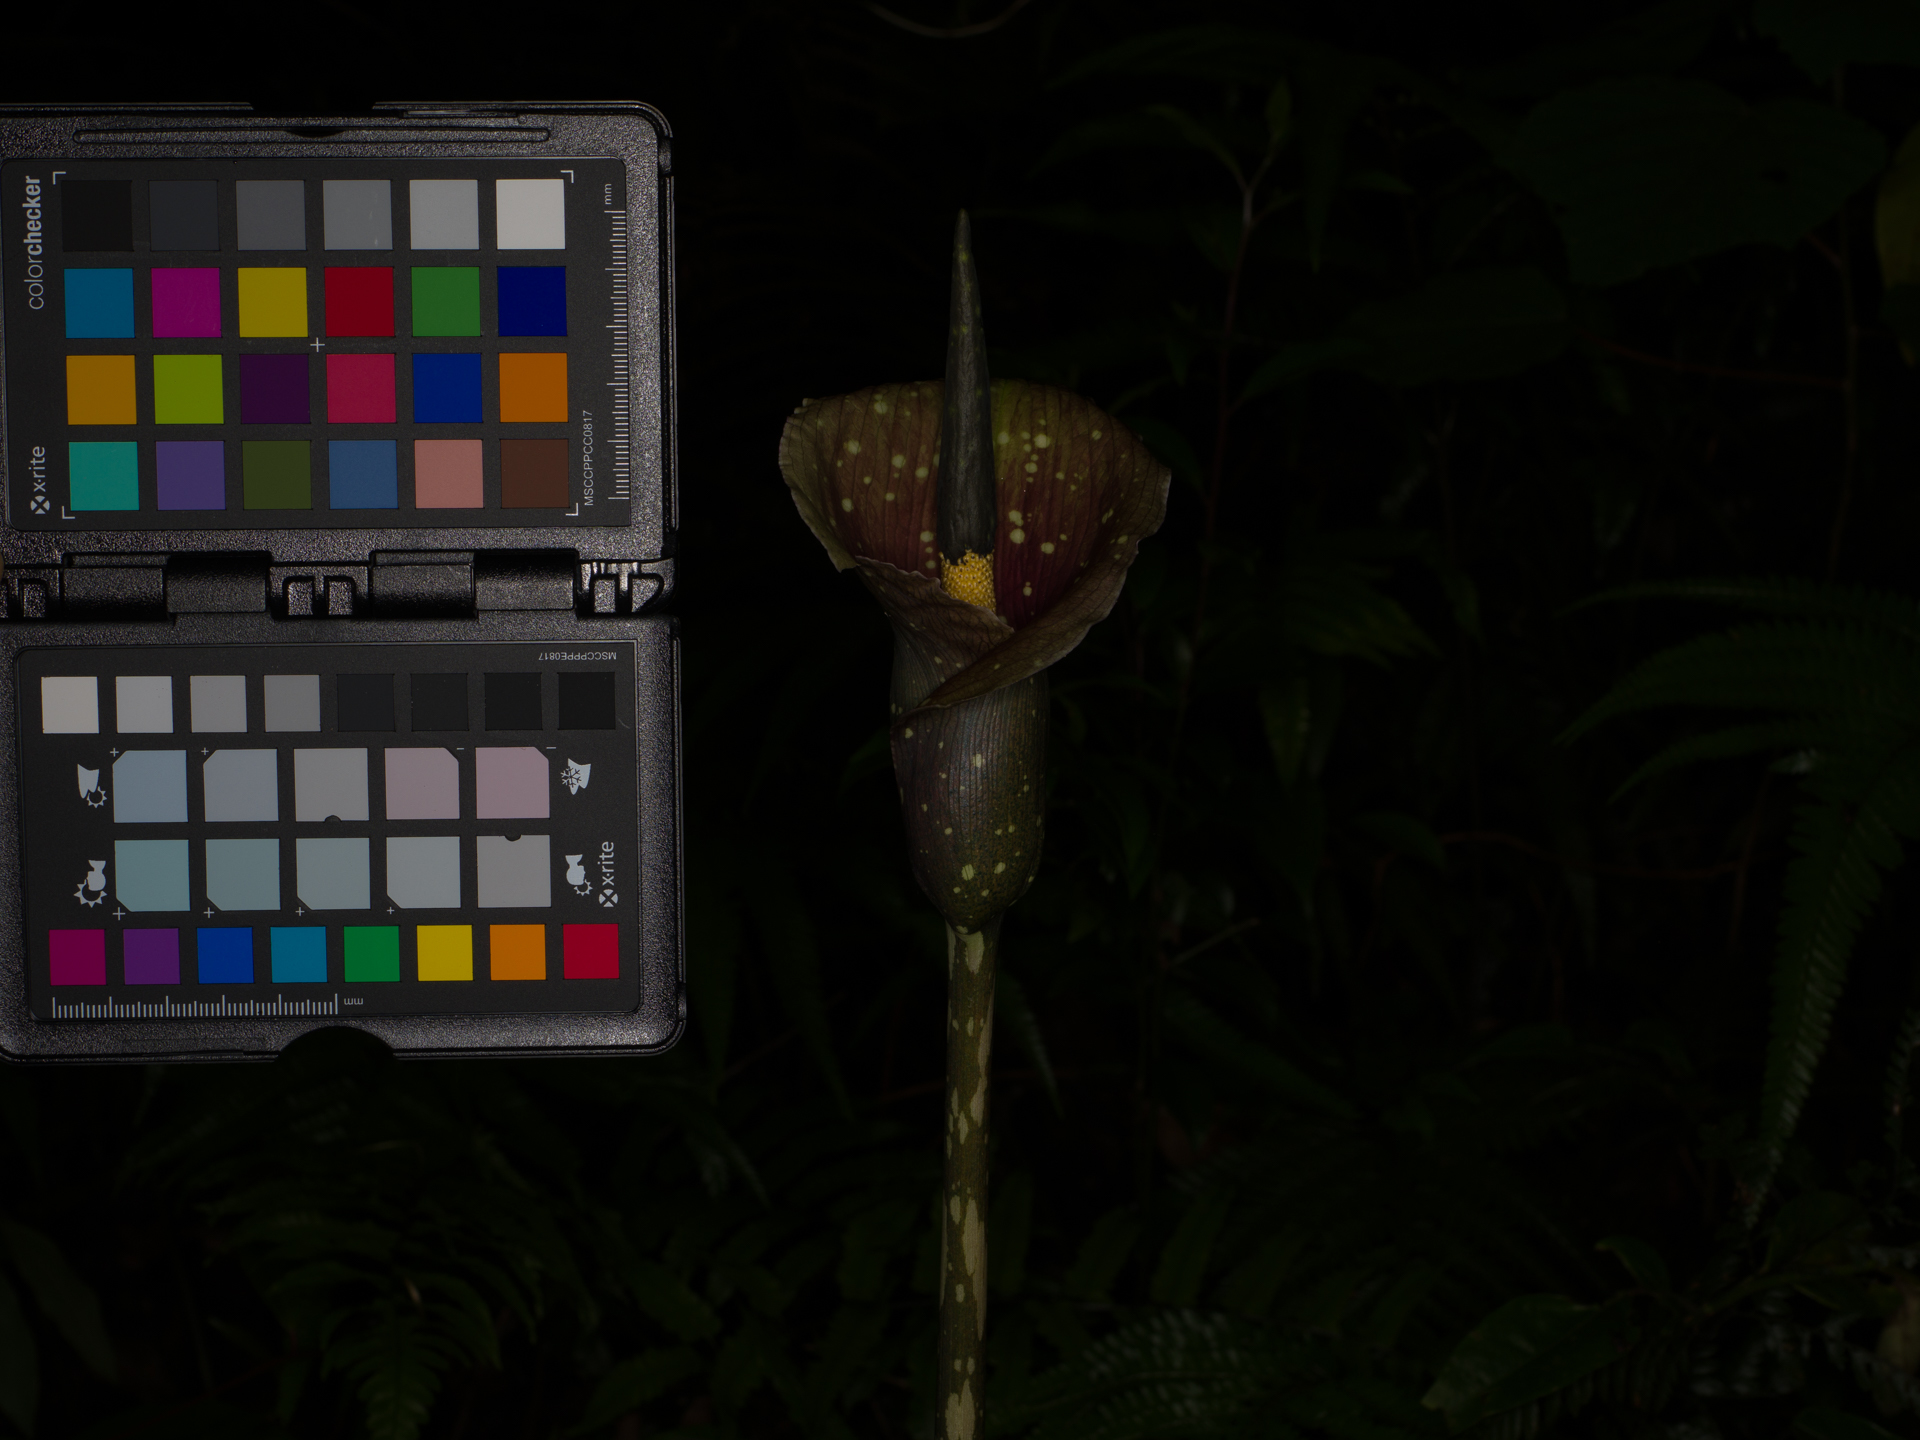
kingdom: Plantae
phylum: Tracheophyta
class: Liliopsida
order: Alismatales
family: Araceae
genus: Amorphophallus
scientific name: Amorphophallus kiusianus
